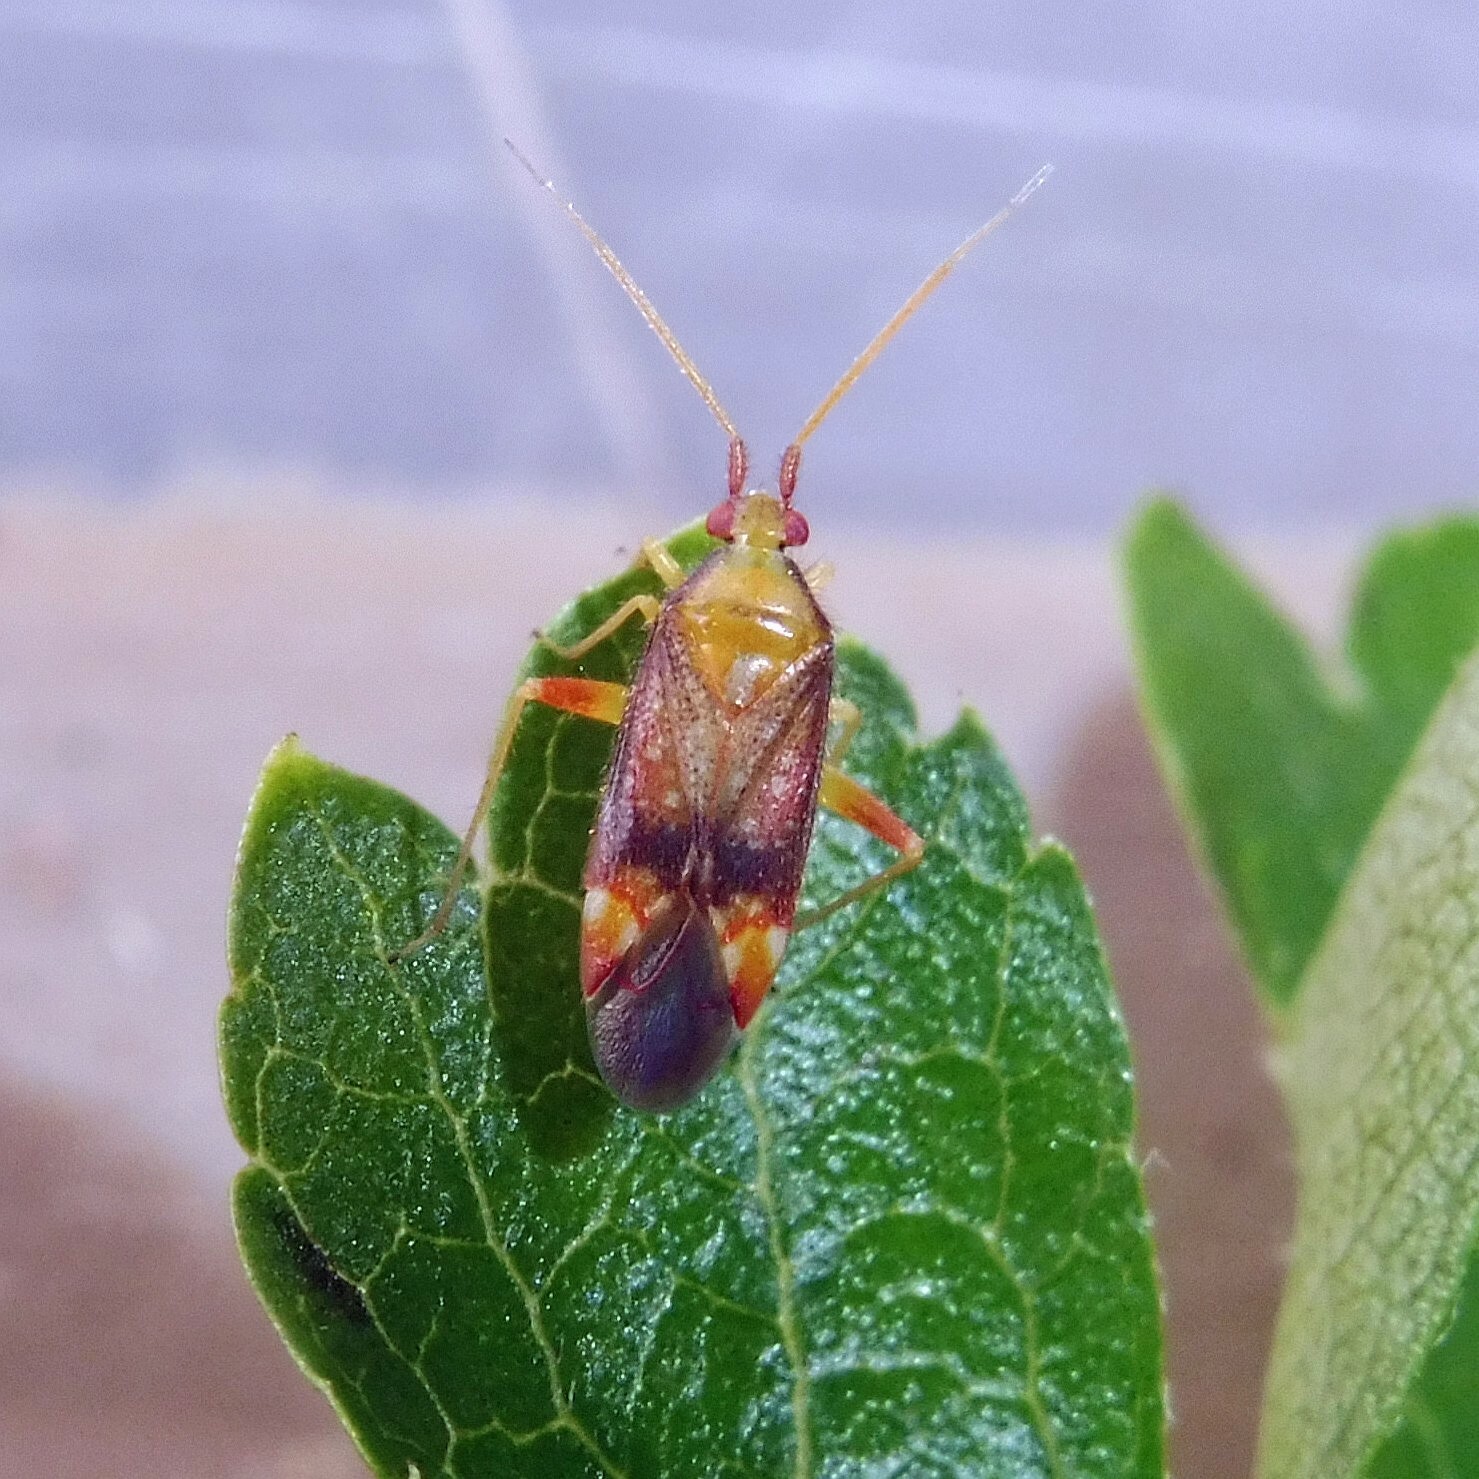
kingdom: Animalia
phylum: Arthropoda
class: Insecta
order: Hemiptera
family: Miridae
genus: Pseudoloxops
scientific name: Pseudoloxops coccineus
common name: Plant bug
